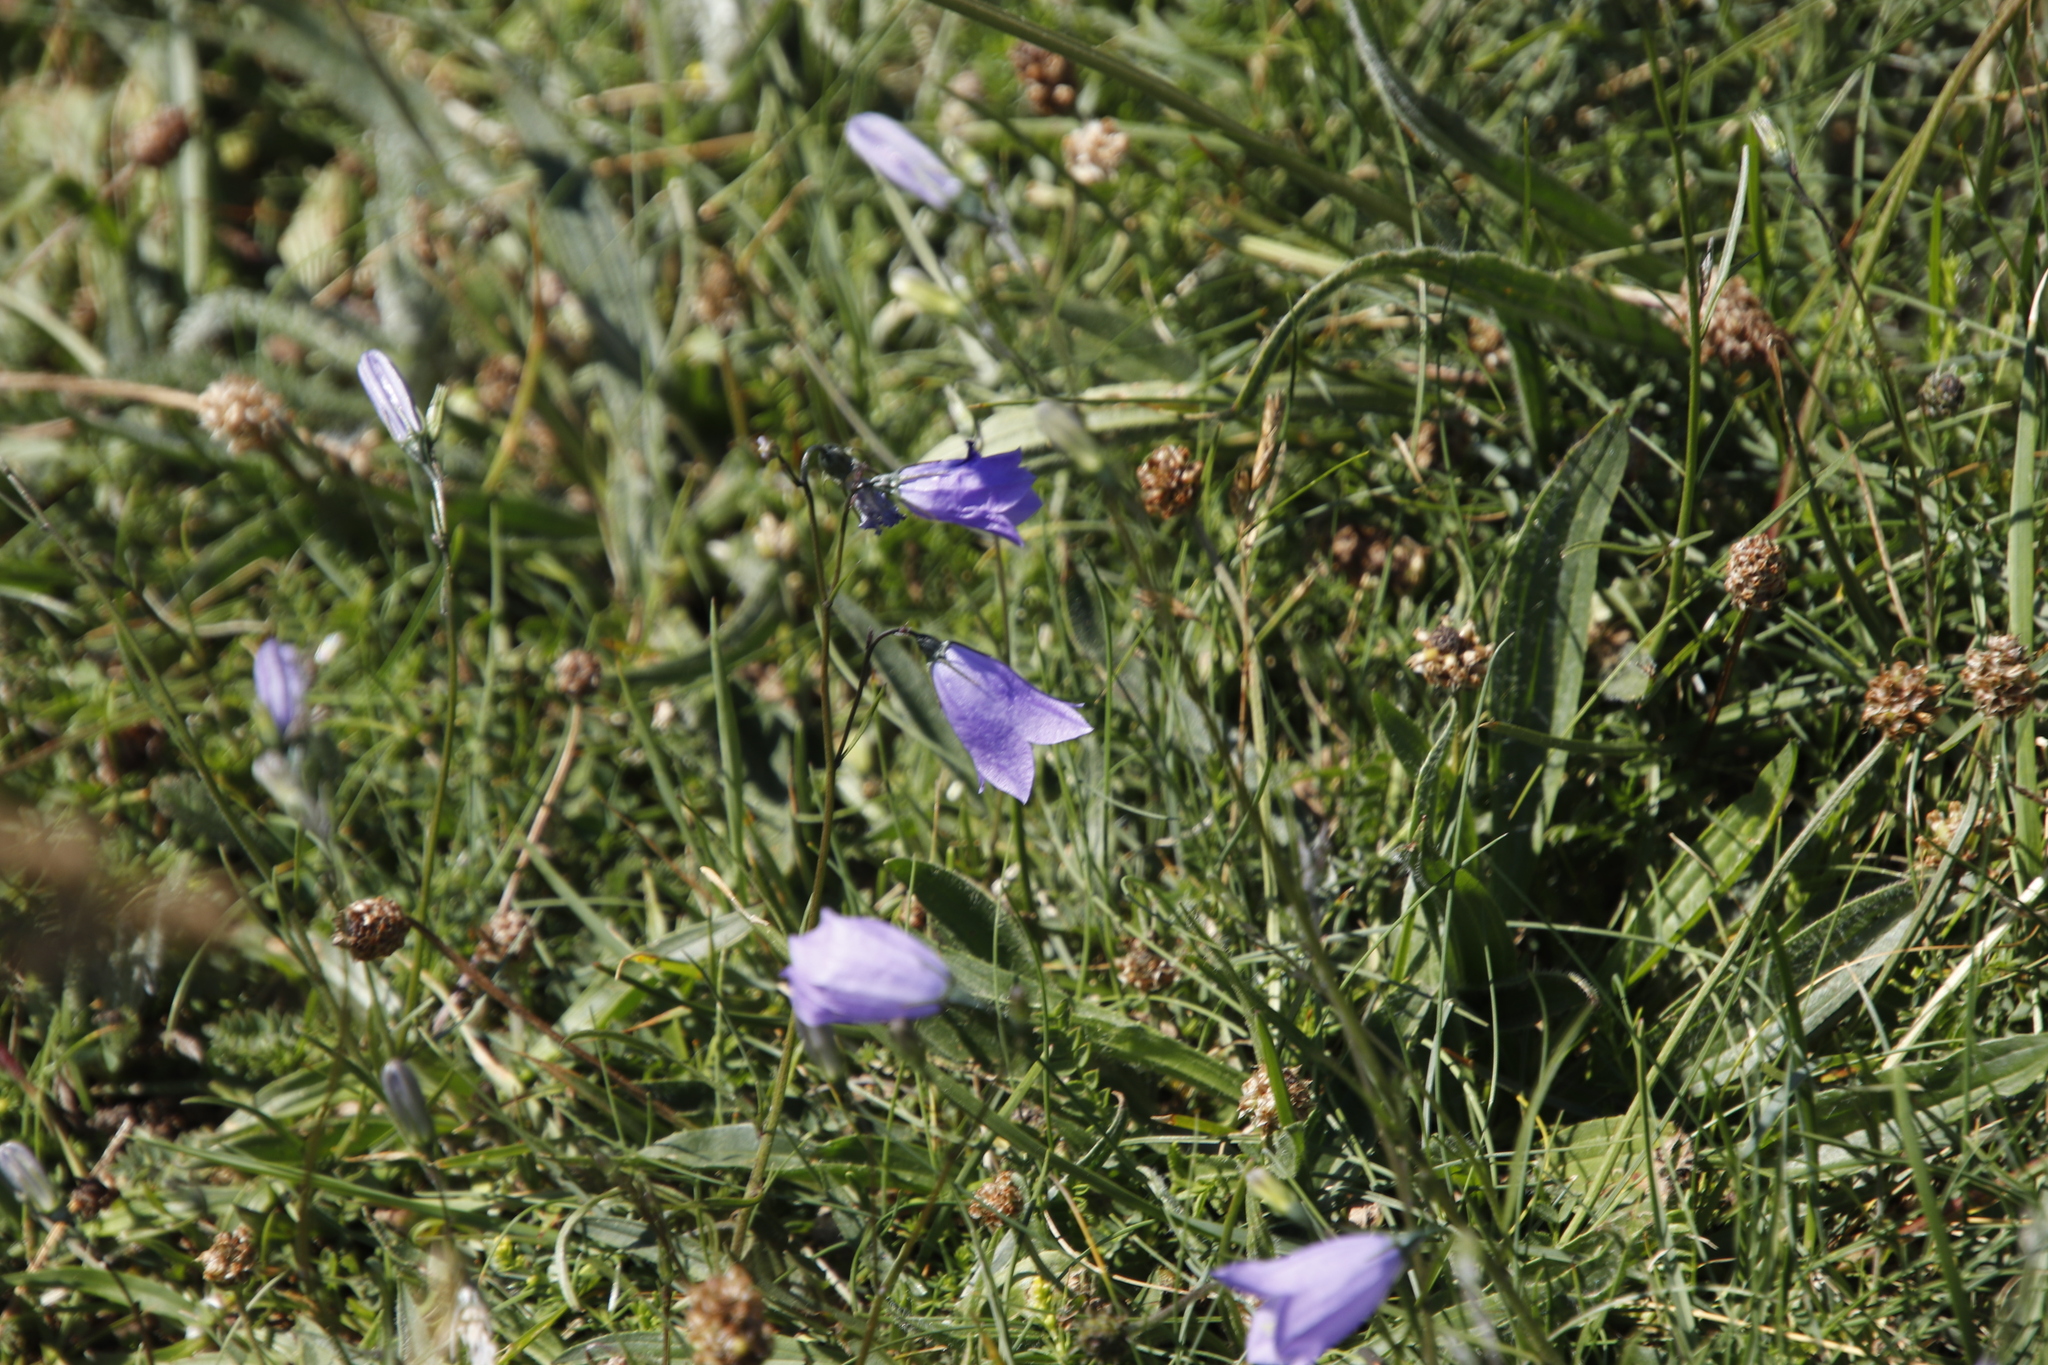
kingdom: Plantae
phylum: Tracheophyta
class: Magnoliopsida
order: Asterales
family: Campanulaceae
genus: Campanula
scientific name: Campanula rotundifolia
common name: Harebell
